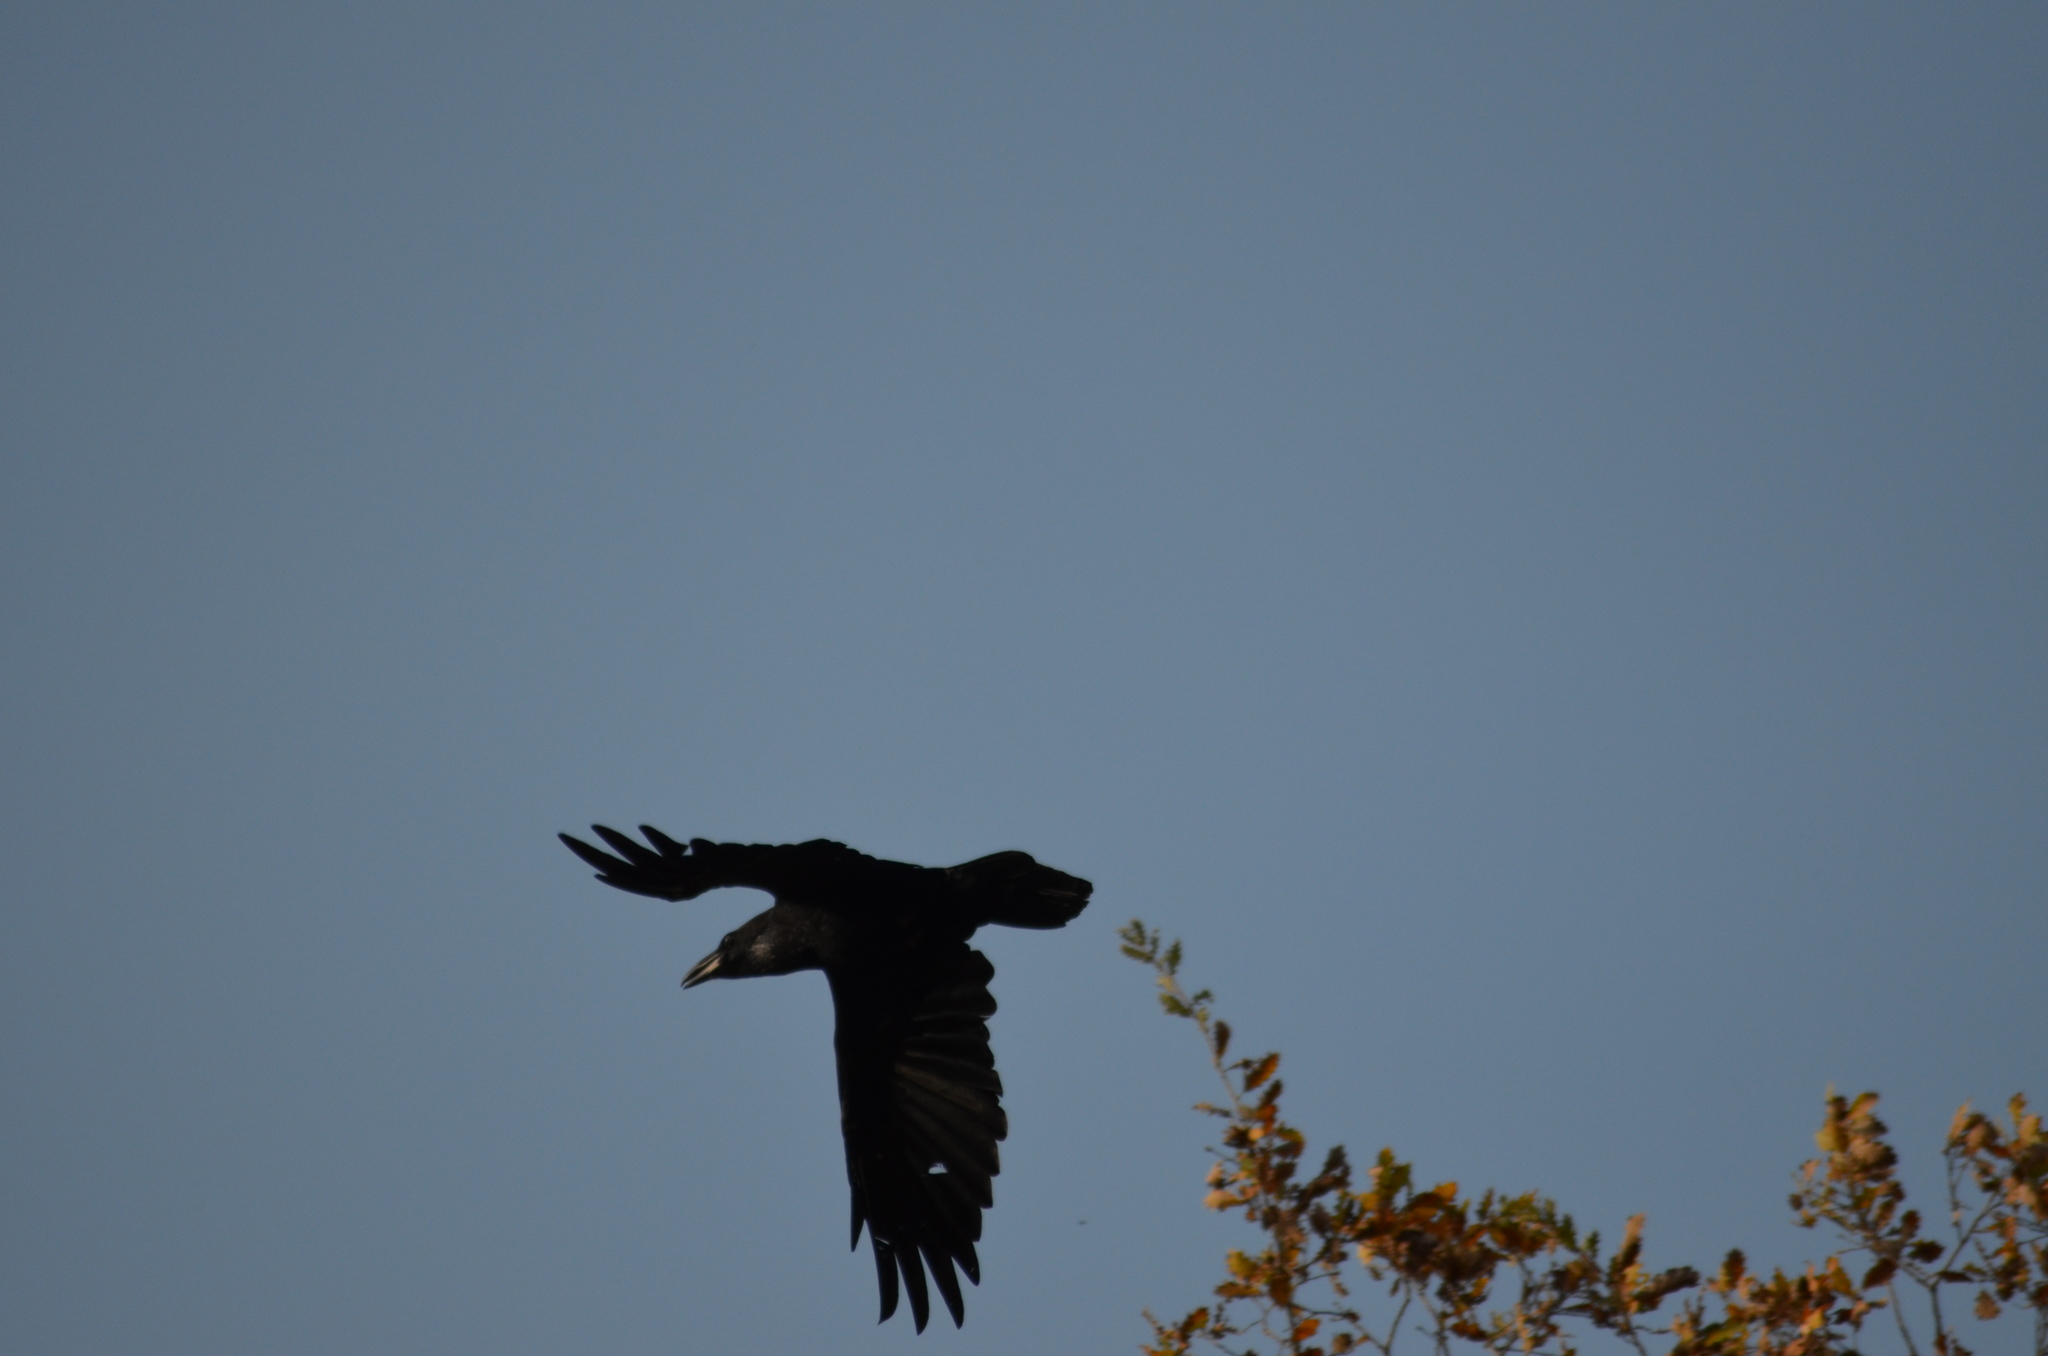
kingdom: Animalia
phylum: Chordata
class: Aves
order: Passeriformes
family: Corvidae
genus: Corvus
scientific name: Corvus corax
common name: Common raven
